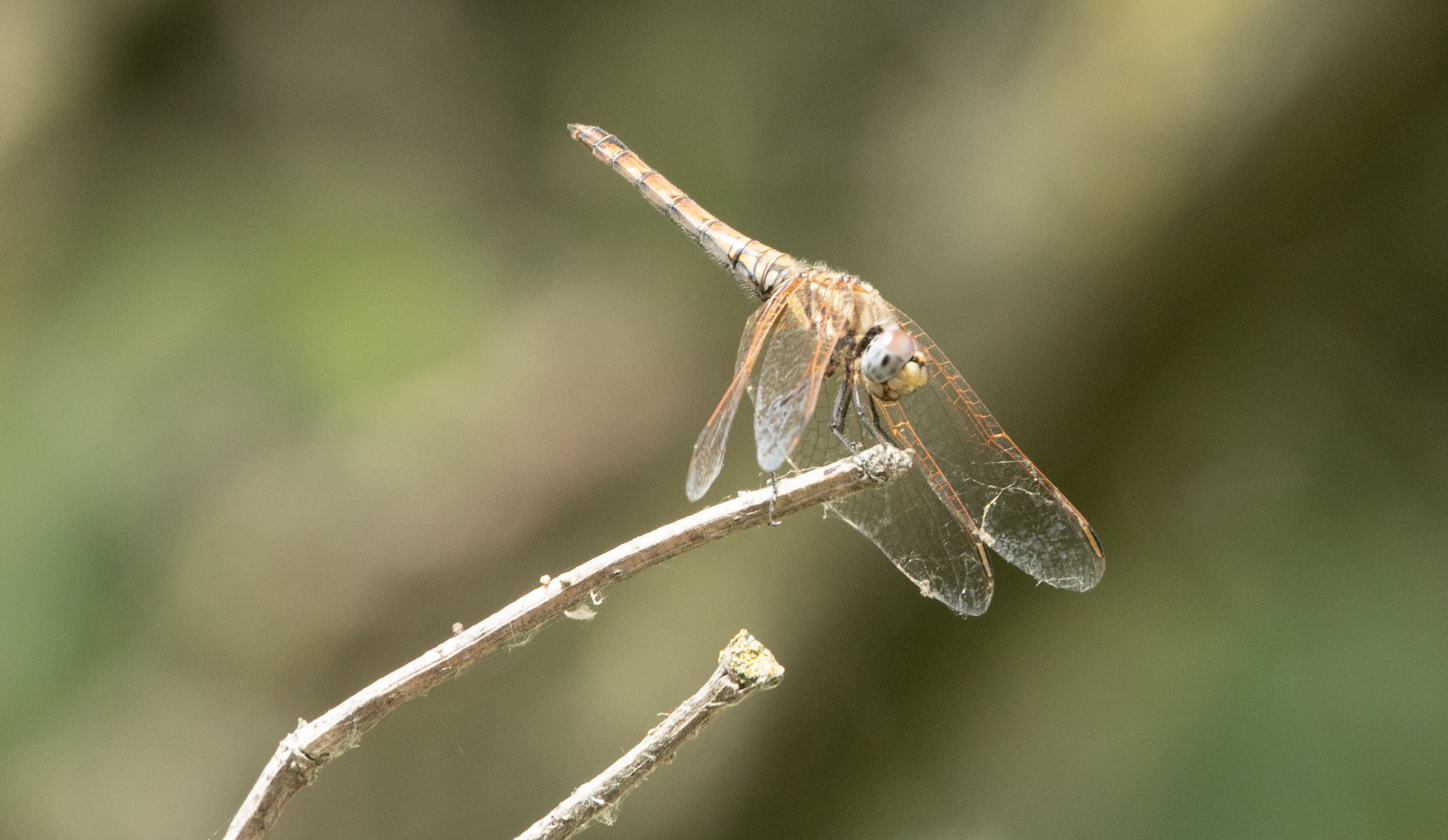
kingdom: Animalia
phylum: Arthropoda
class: Insecta
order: Odonata
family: Libellulidae
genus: Trithemis
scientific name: Trithemis annulata
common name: Violet dropwing
